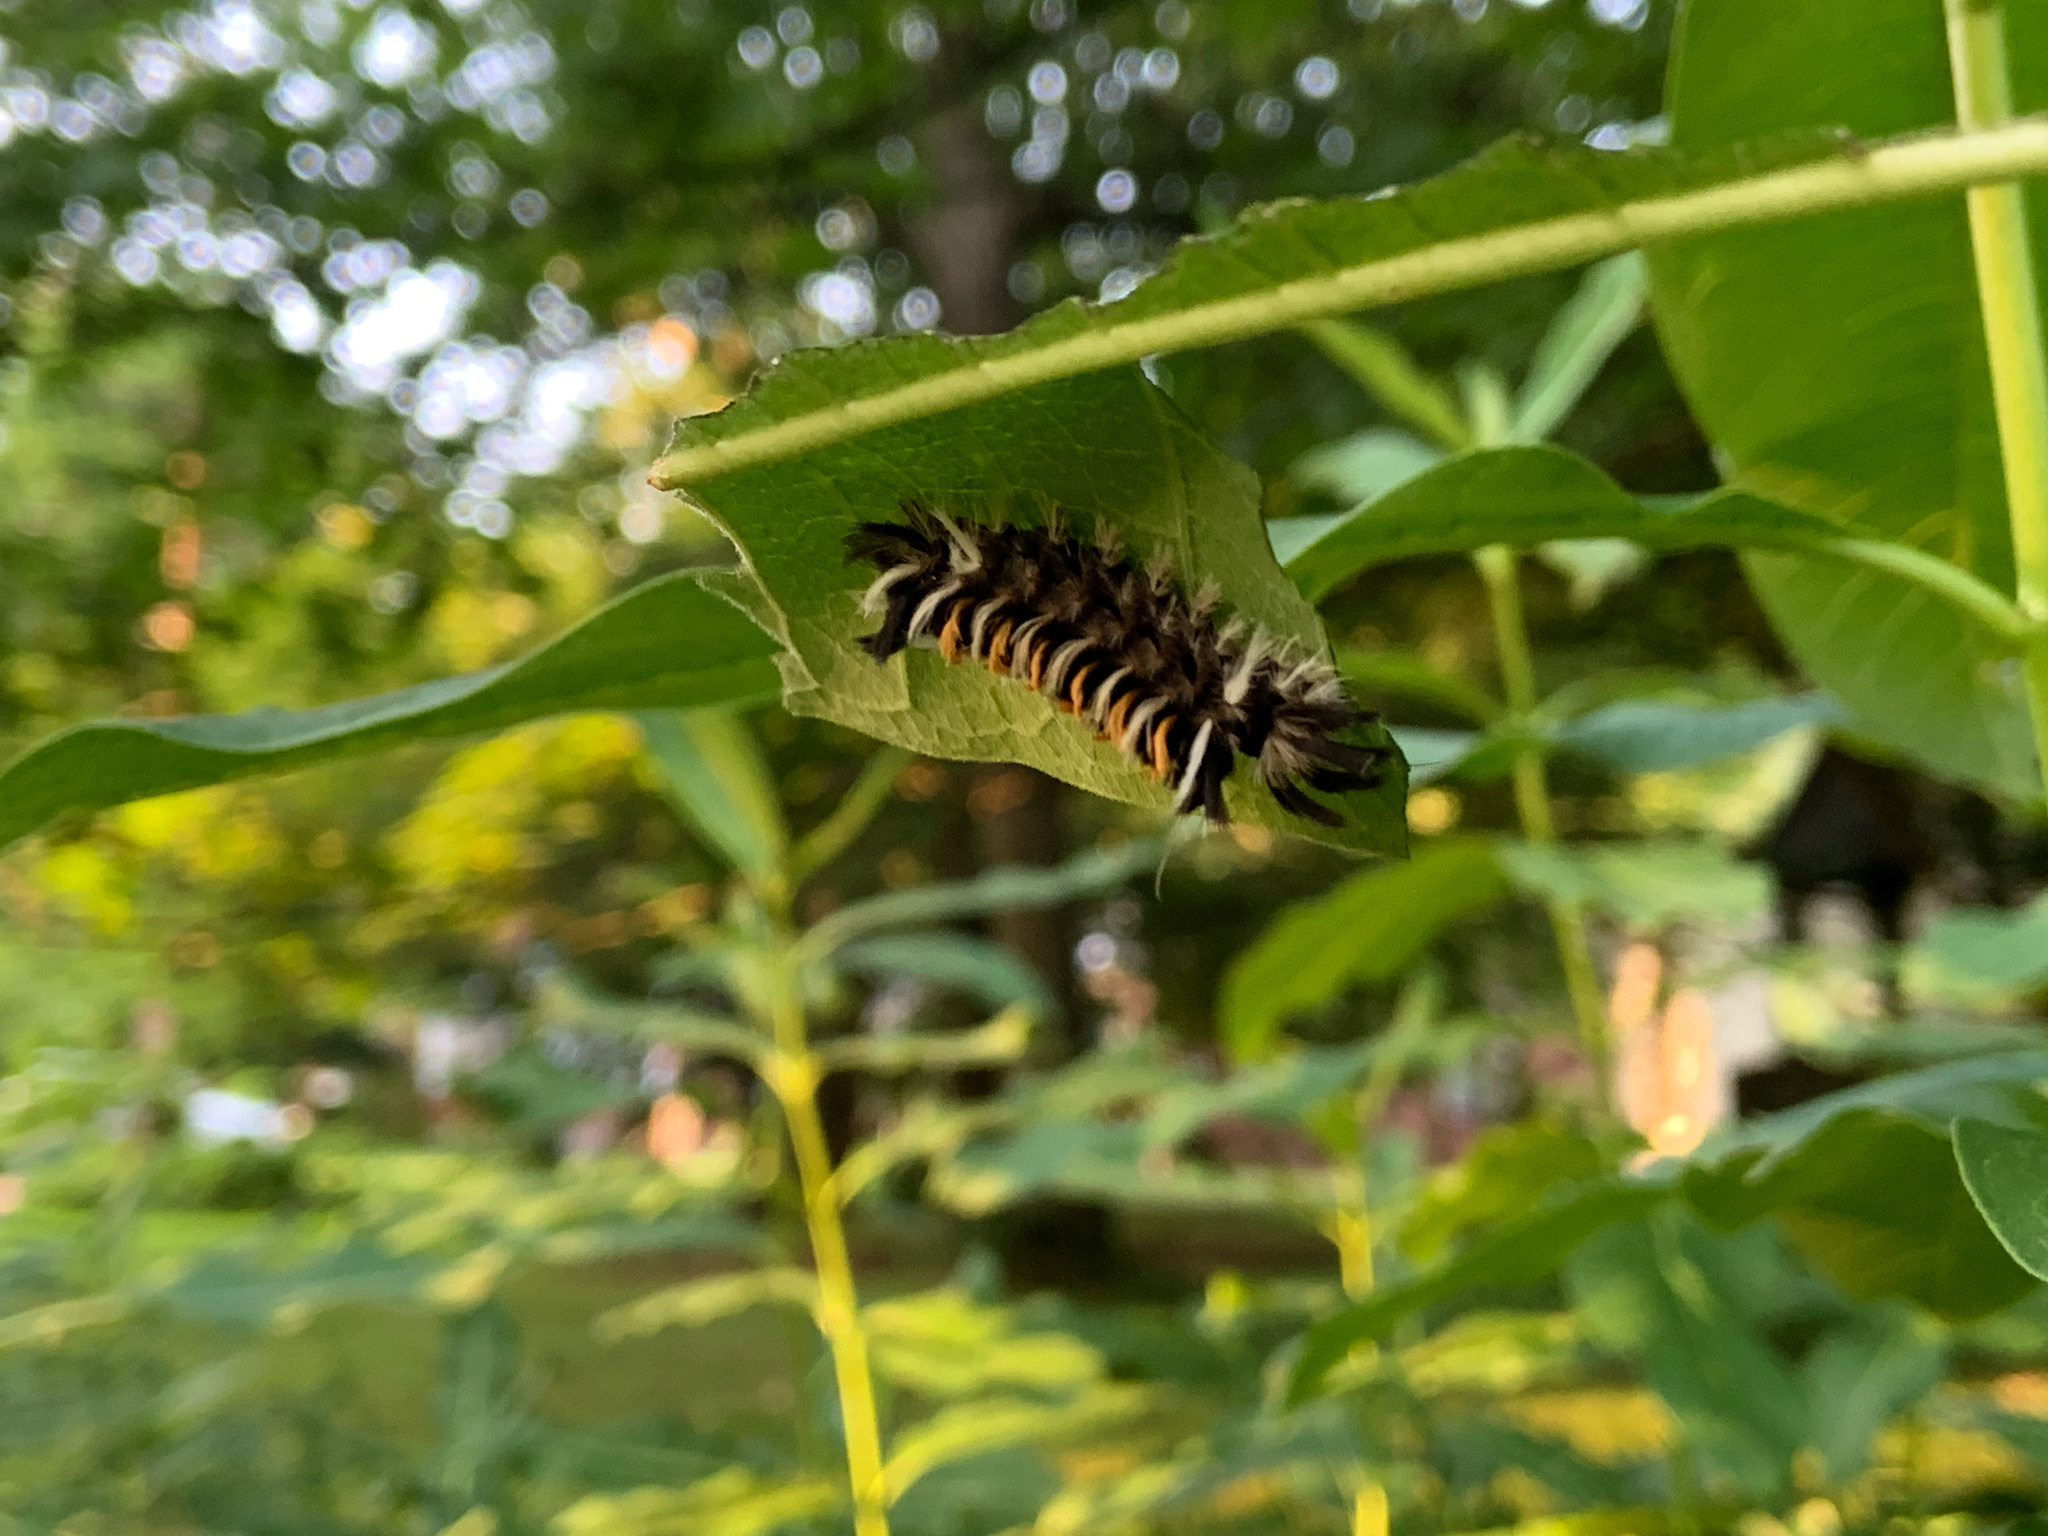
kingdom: Animalia
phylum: Arthropoda
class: Insecta
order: Lepidoptera
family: Erebidae
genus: Euchaetes
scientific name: Euchaetes egle
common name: Milkweed tussock moth
